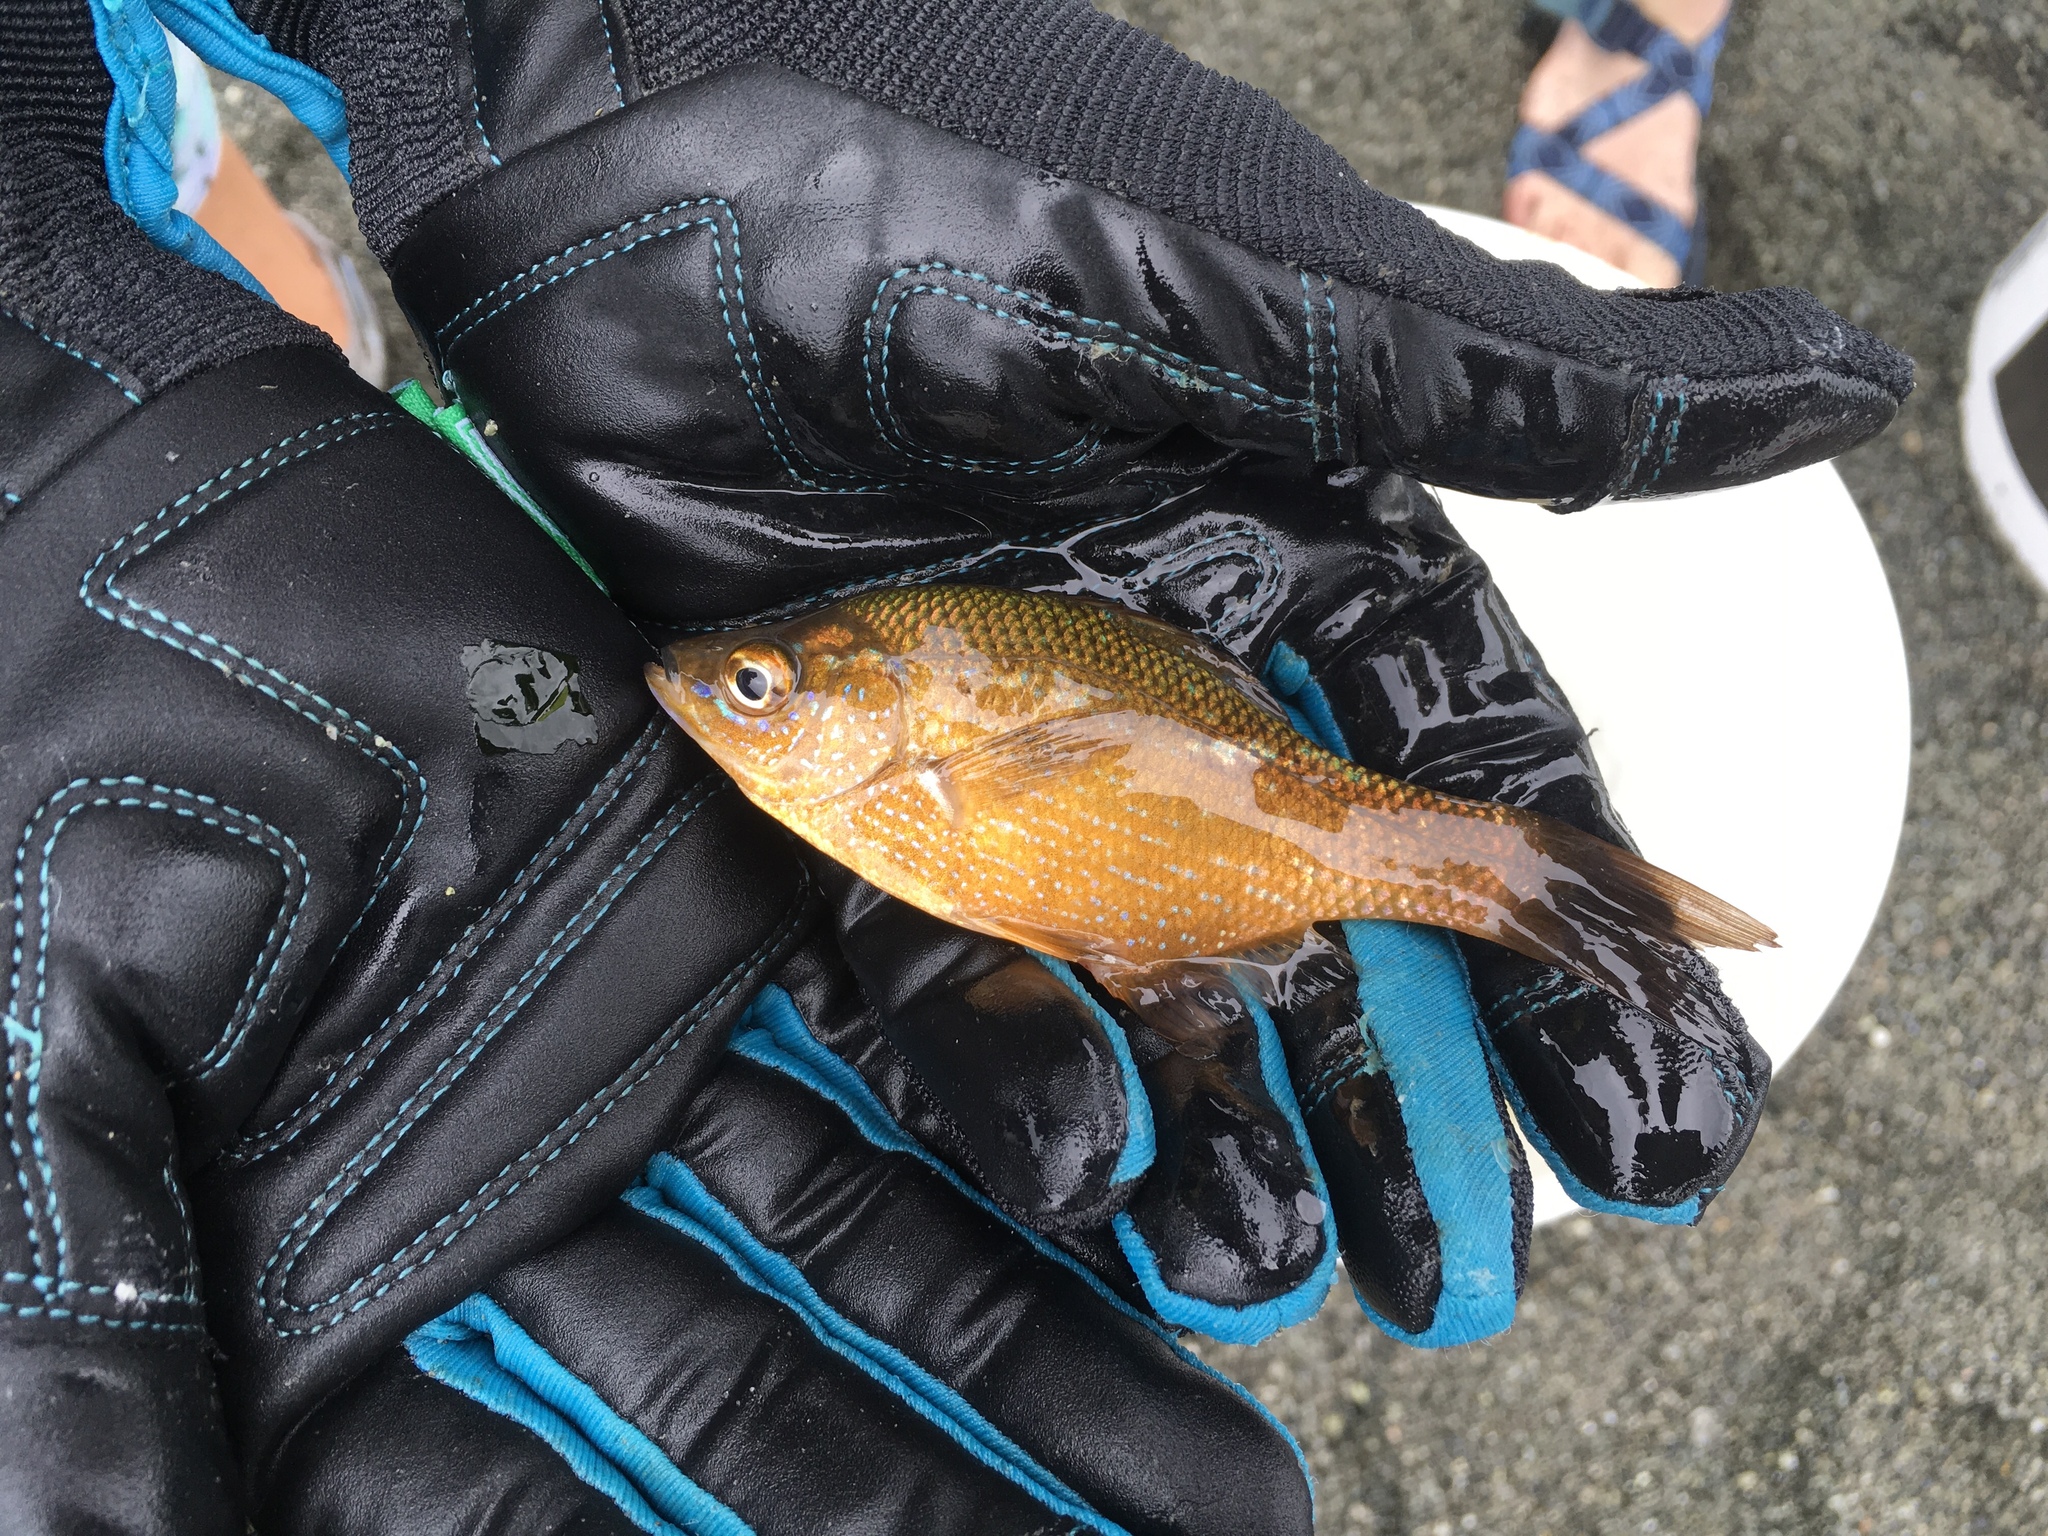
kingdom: Animalia
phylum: Chordata
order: Perciformes
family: Embiotocidae
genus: Brachyistius
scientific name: Brachyistius frenatus
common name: Kelp perch
